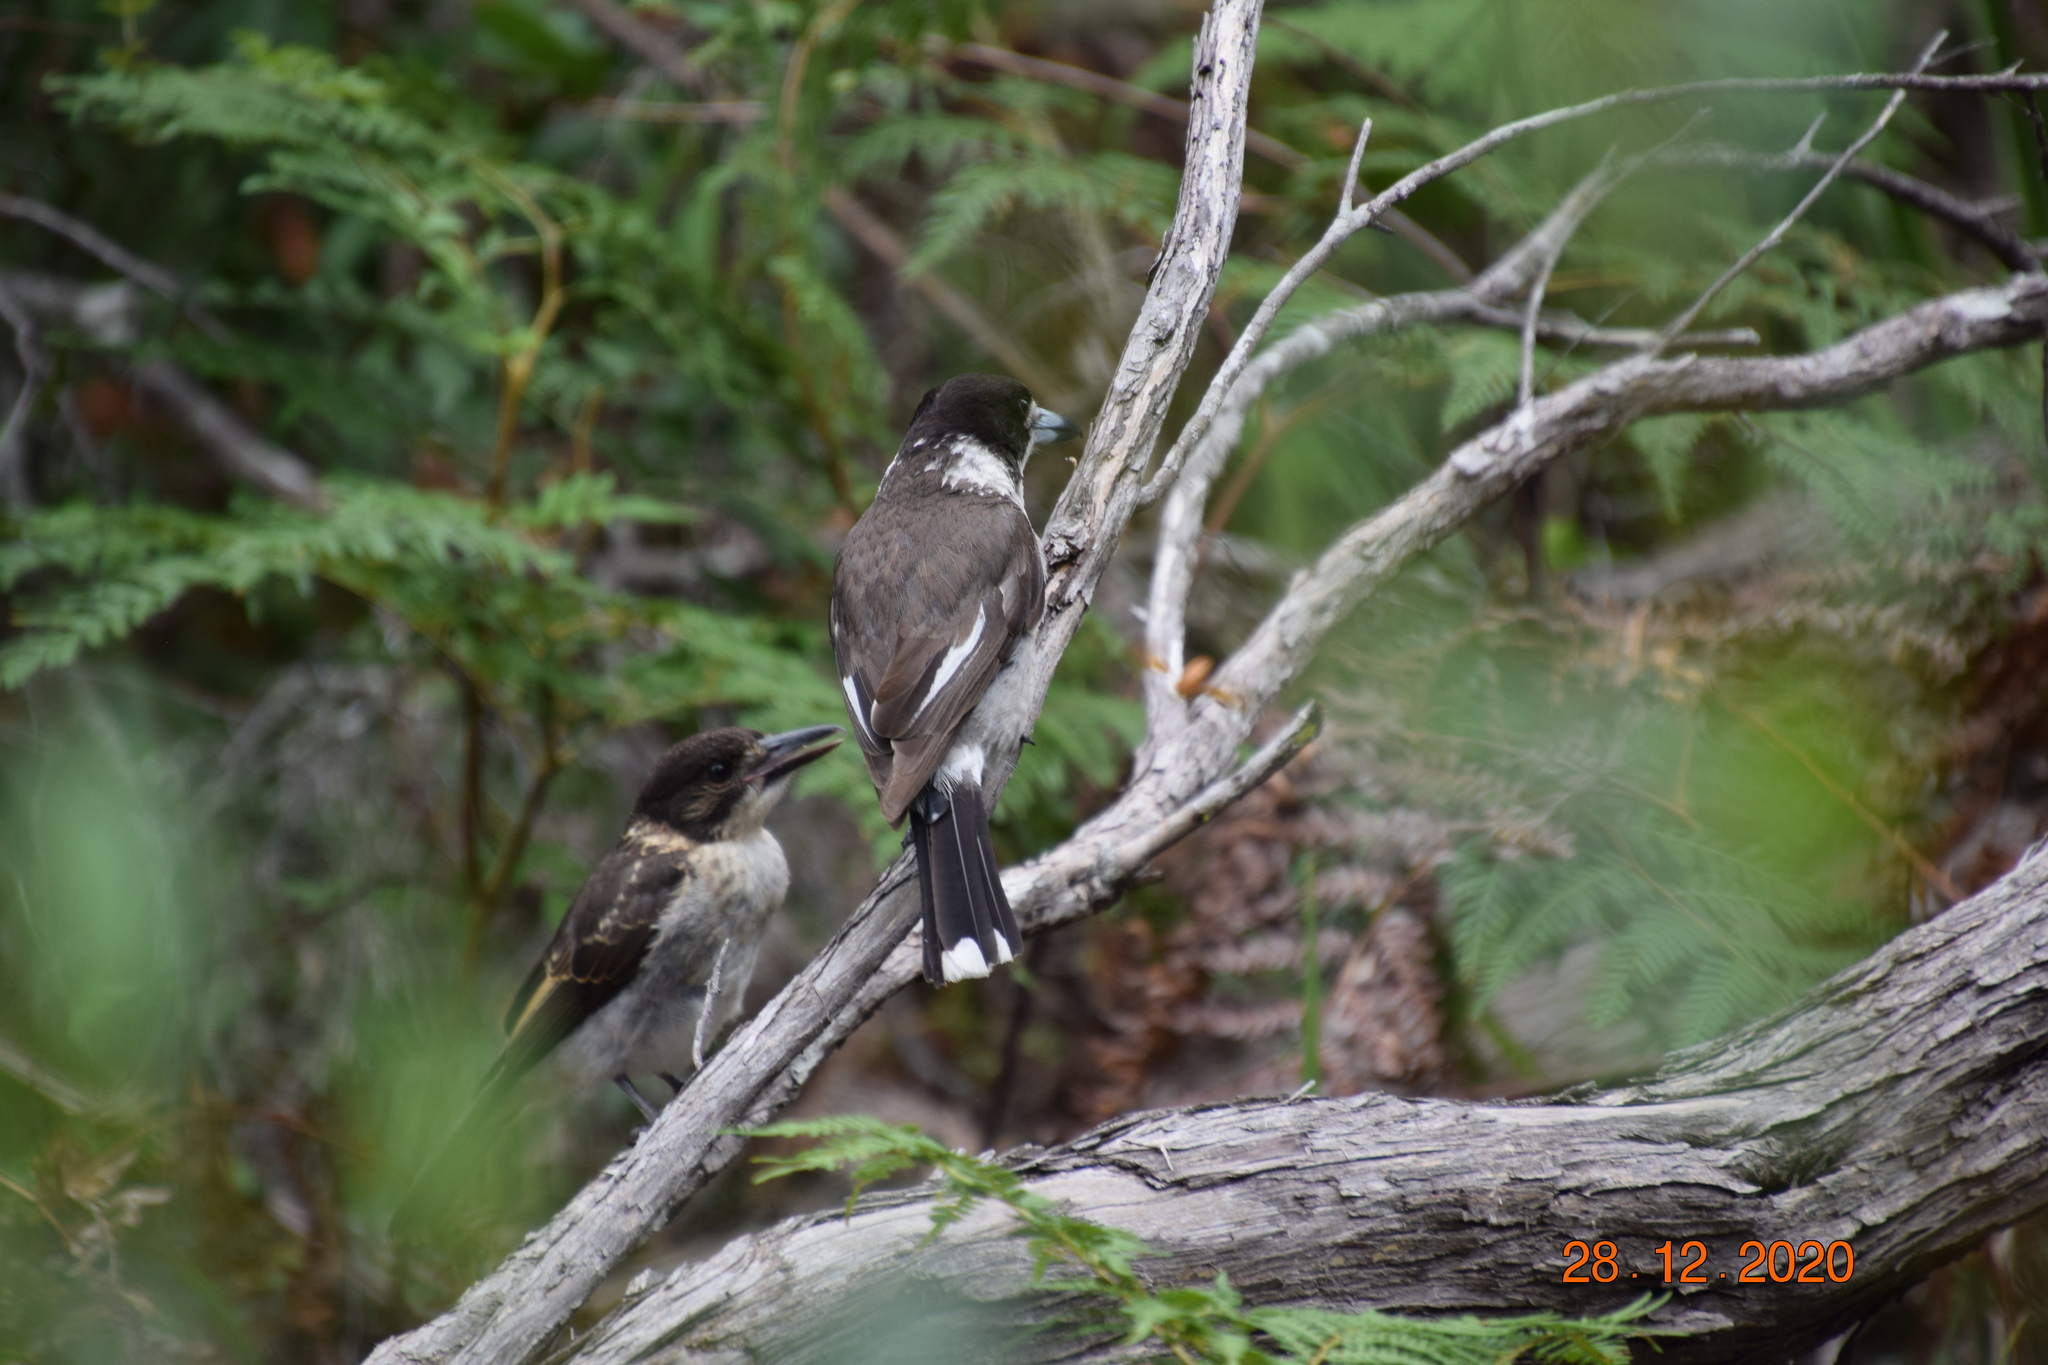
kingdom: Animalia
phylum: Chordata
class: Aves
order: Passeriformes
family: Cracticidae
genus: Cracticus
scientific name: Cracticus torquatus
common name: Grey butcherbird
